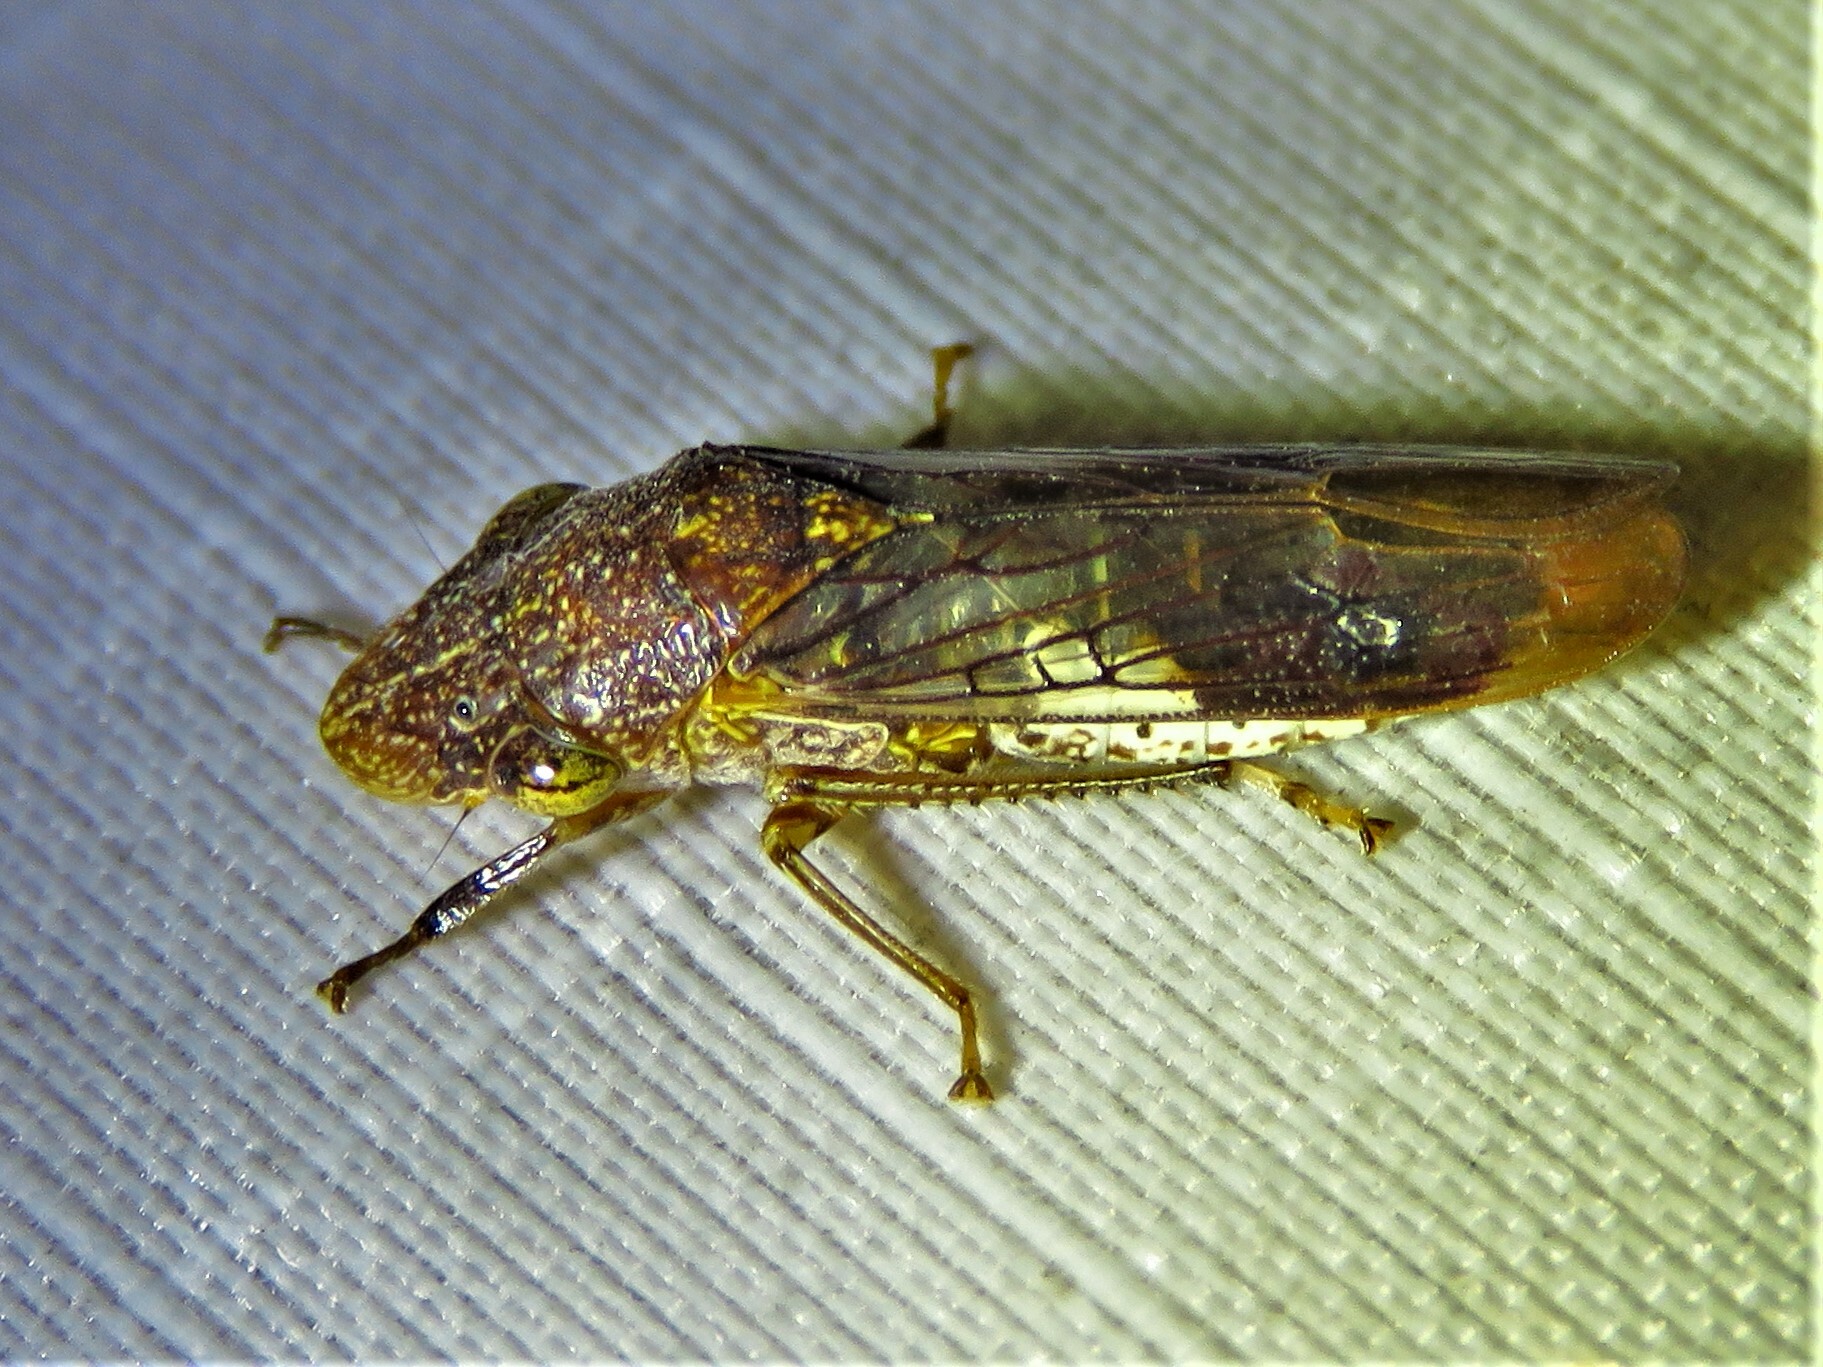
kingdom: Animalia
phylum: Arthropoda
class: Insecta
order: Hemiptera
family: Cicadellidae
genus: Homalodisca
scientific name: Homalodisca vitripennis
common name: Glassy-winged sharpshooter
